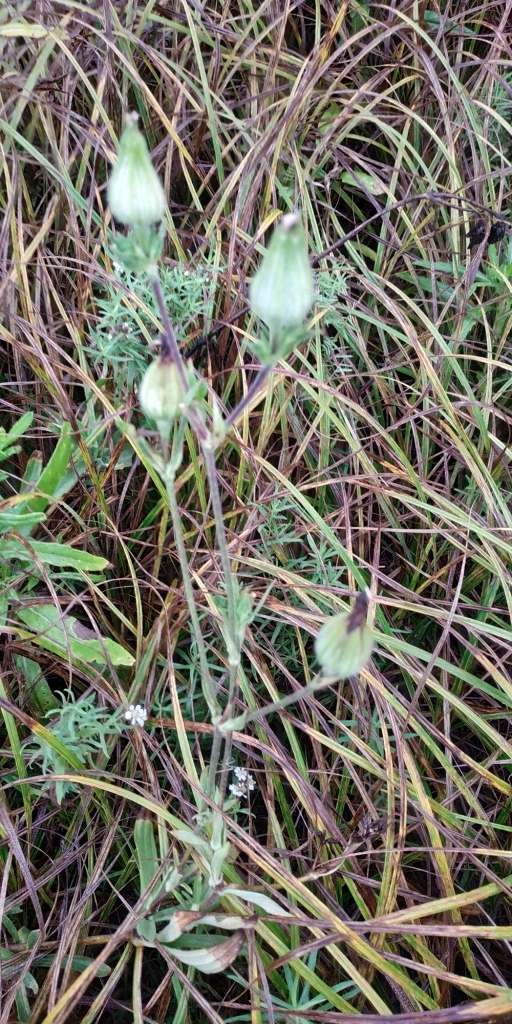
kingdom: Plantae
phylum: Tracheophyta
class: Magnoliopsida
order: Caryophyllales
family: Caryophyllaceae
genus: Silene
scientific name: Silene latifolia
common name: White campion
